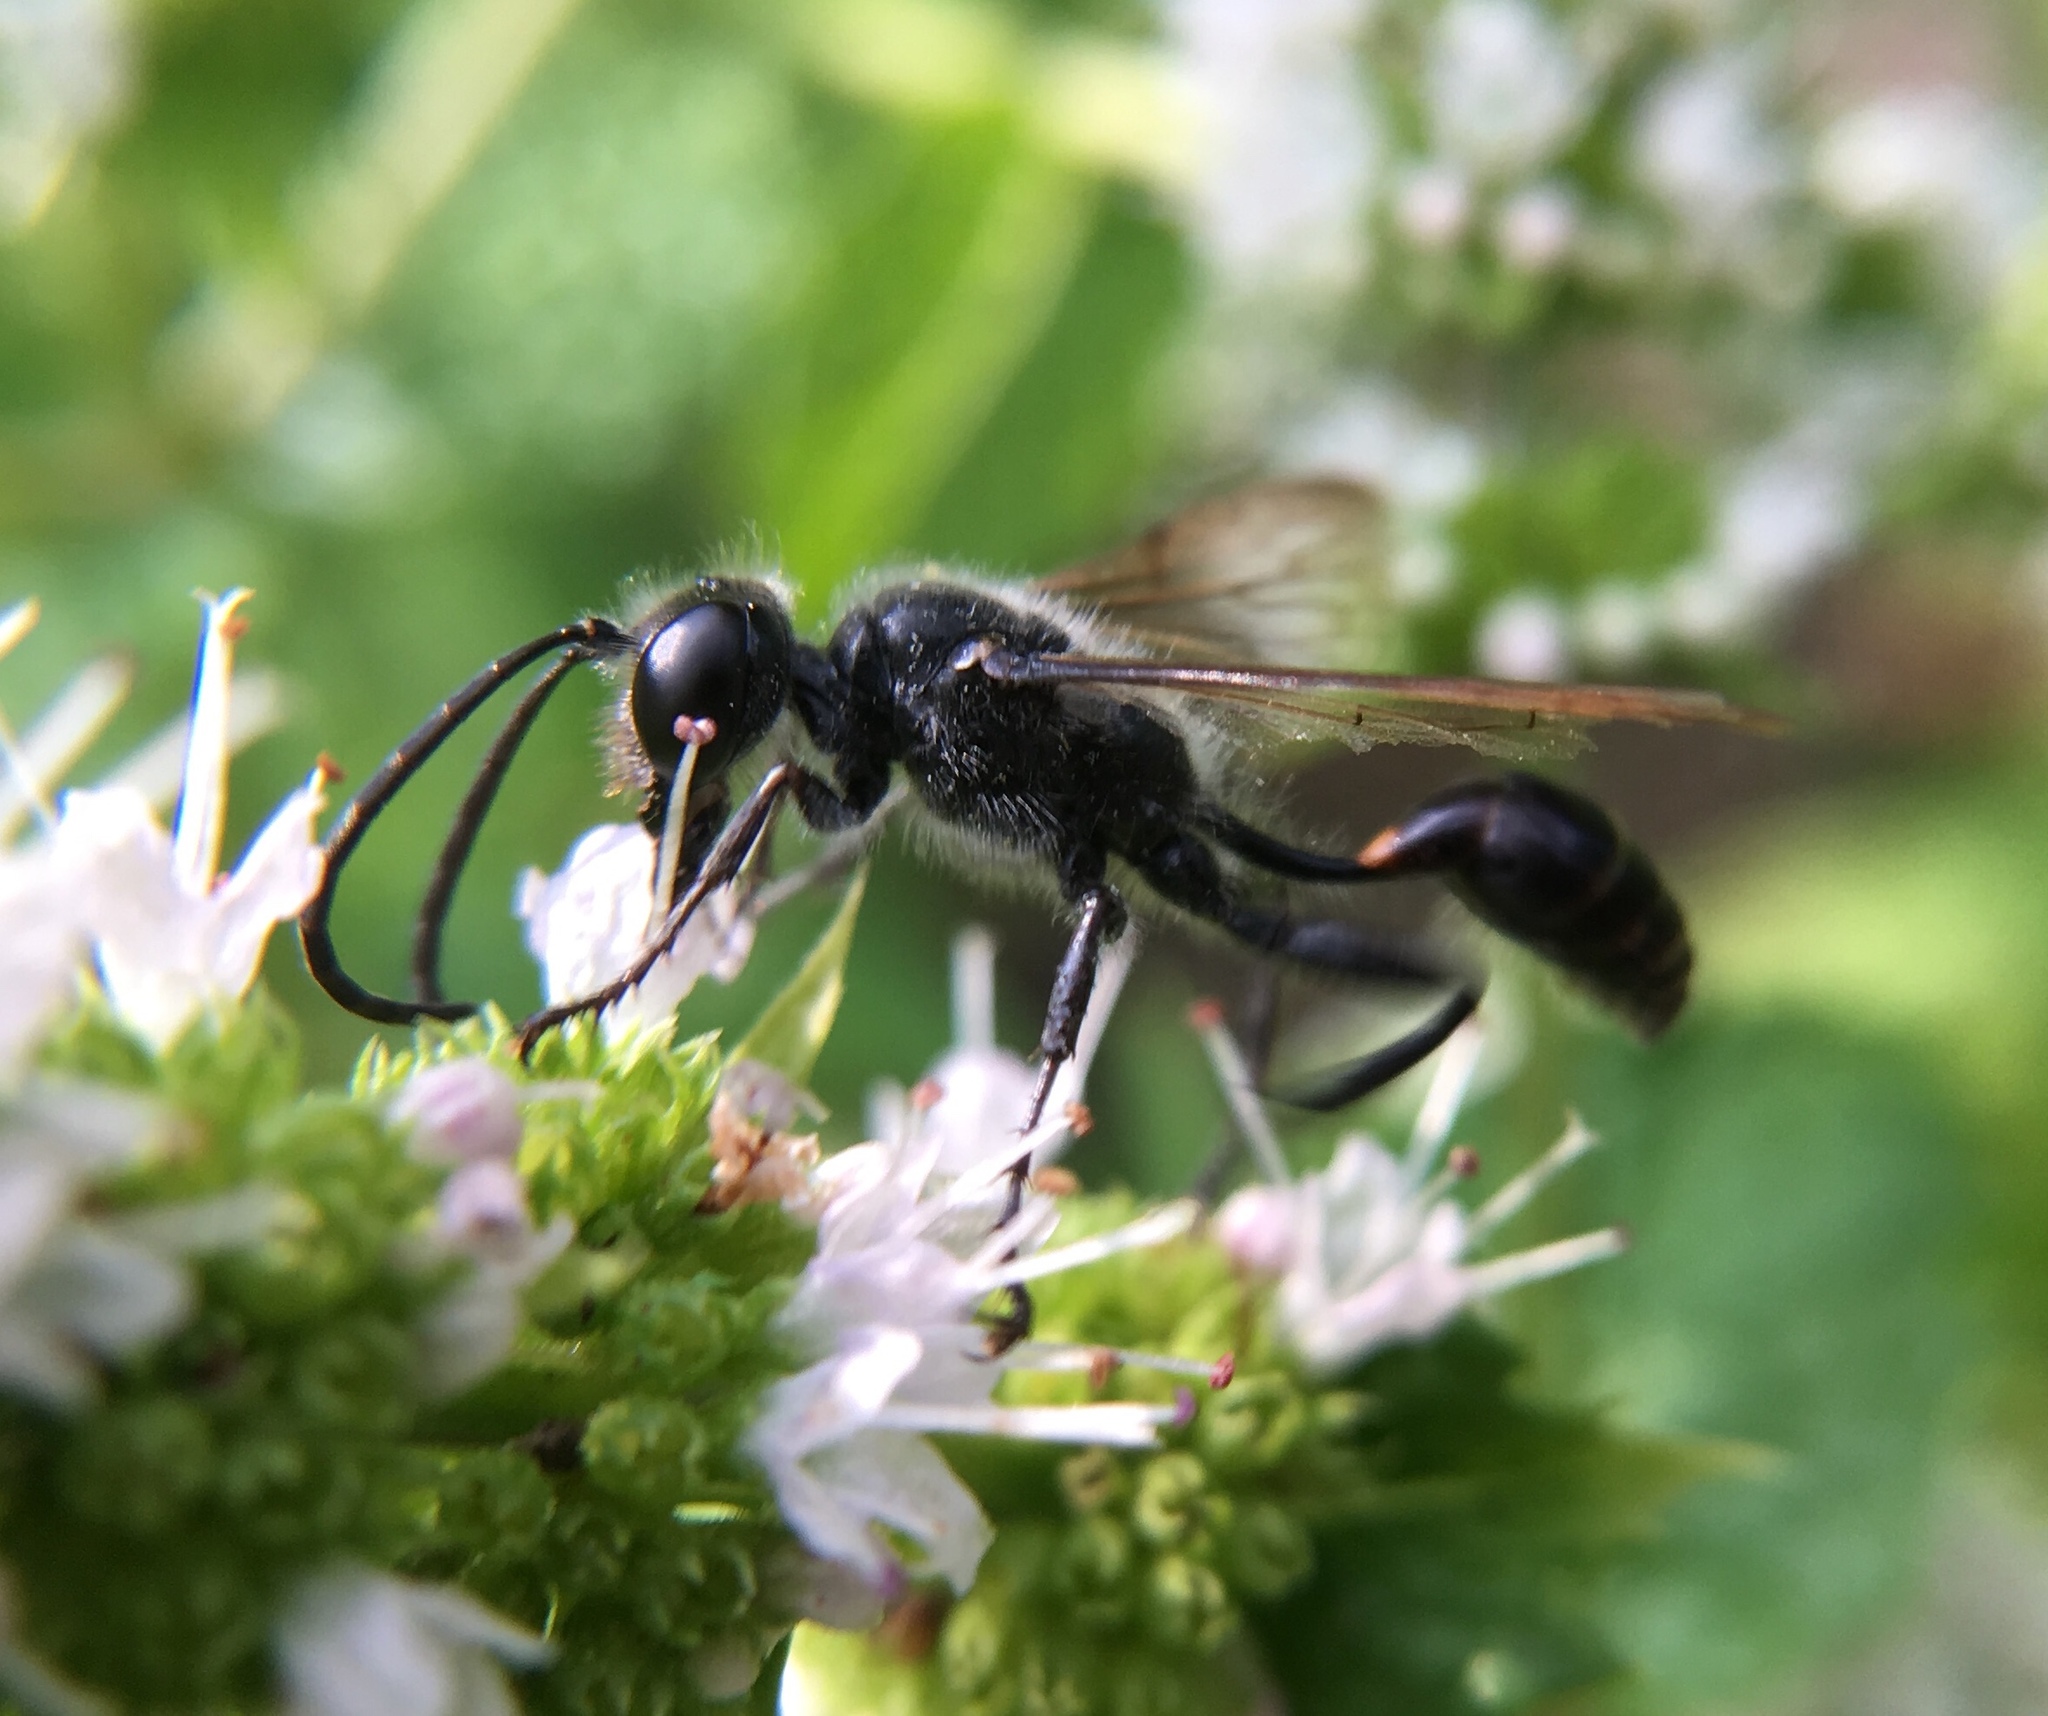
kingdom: Animalia
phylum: Arthropoda
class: Insecta
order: Hymenoptera
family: Sphecidae
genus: Isodontia
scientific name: Isodontia mexicana
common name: Mud dauber
